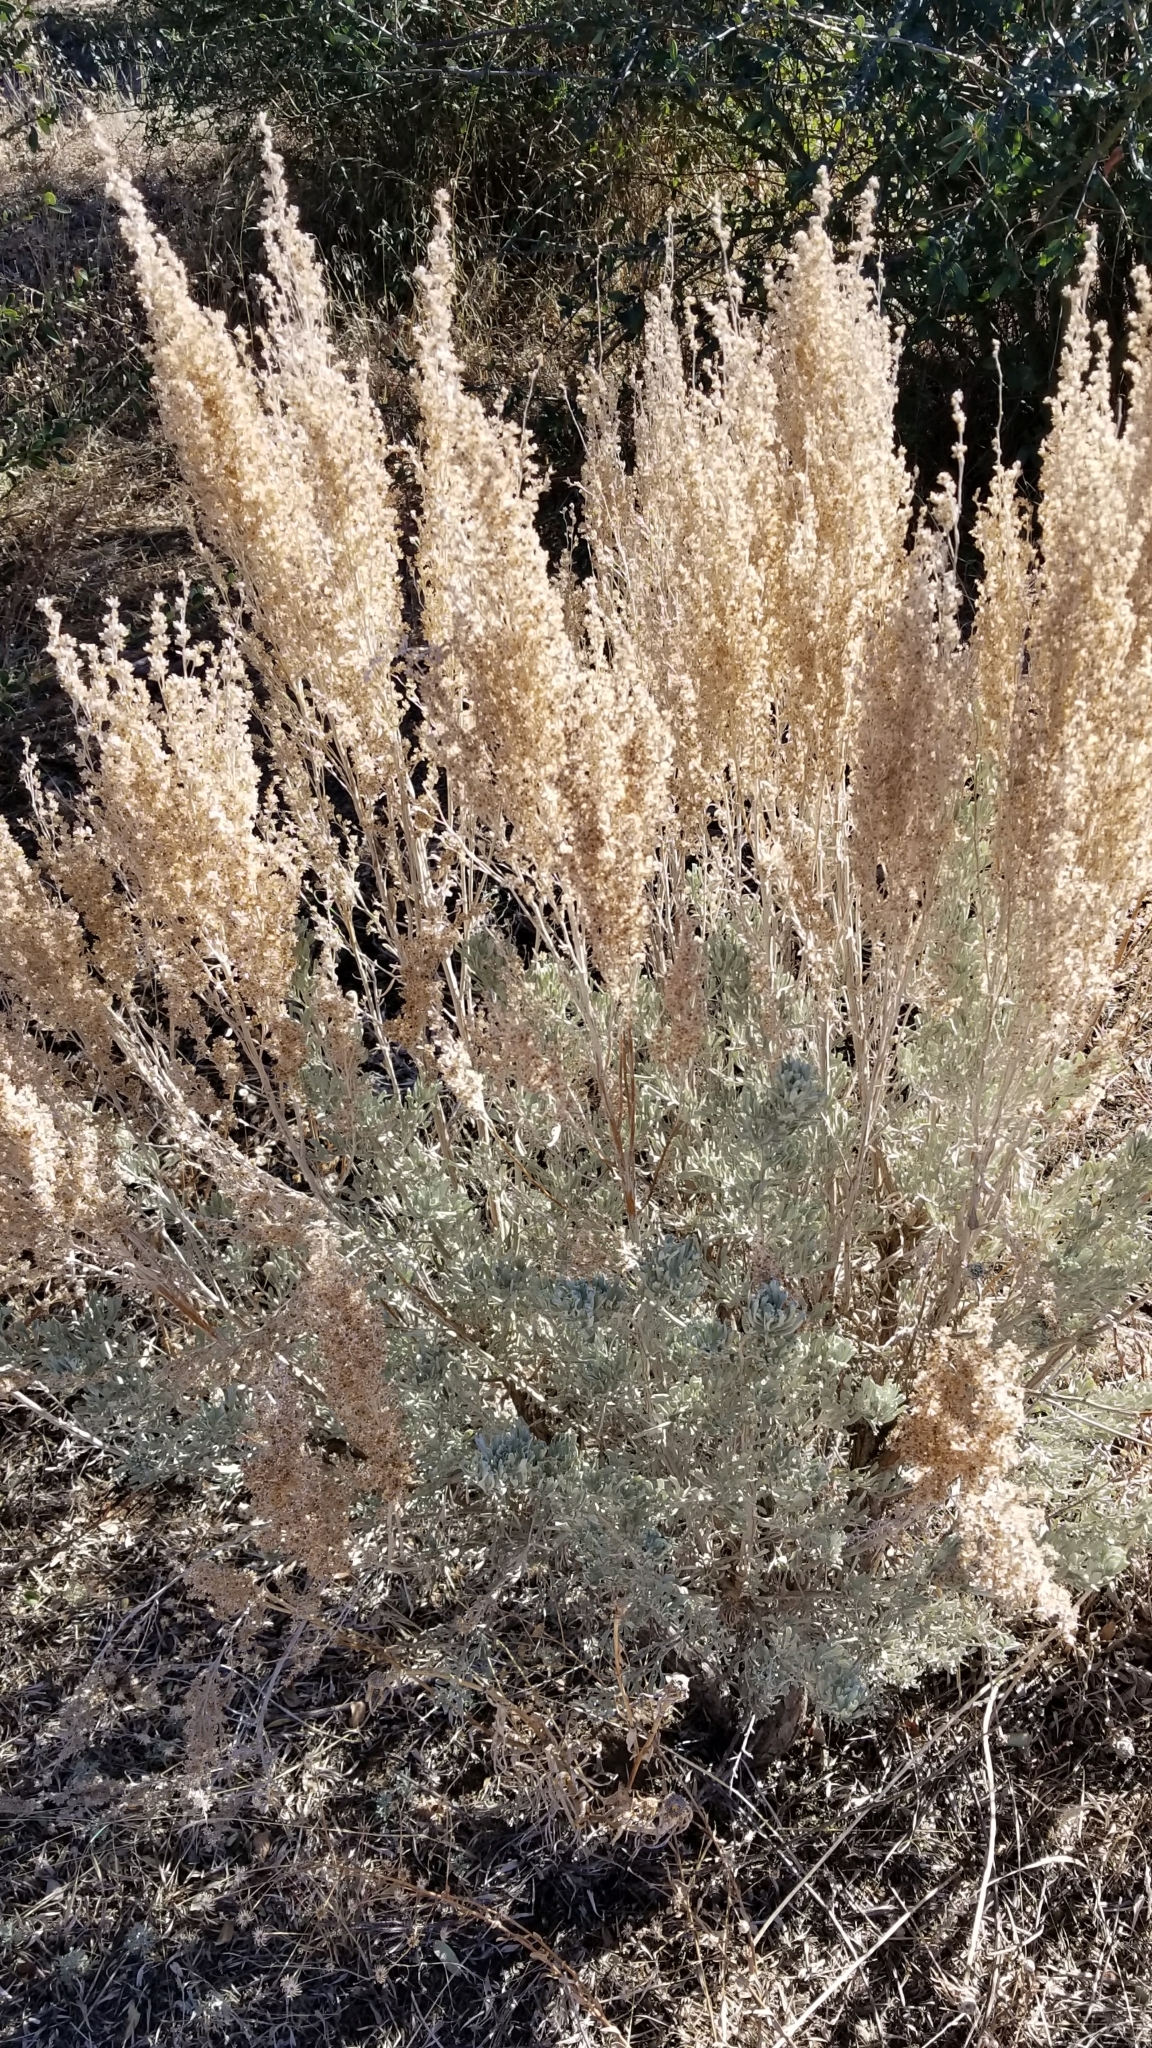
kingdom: Plantae
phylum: Tracheophyta
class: Magnoliopsida
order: Asterales
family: Asteraceae
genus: Artemisia
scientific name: Artemisia tridentata
